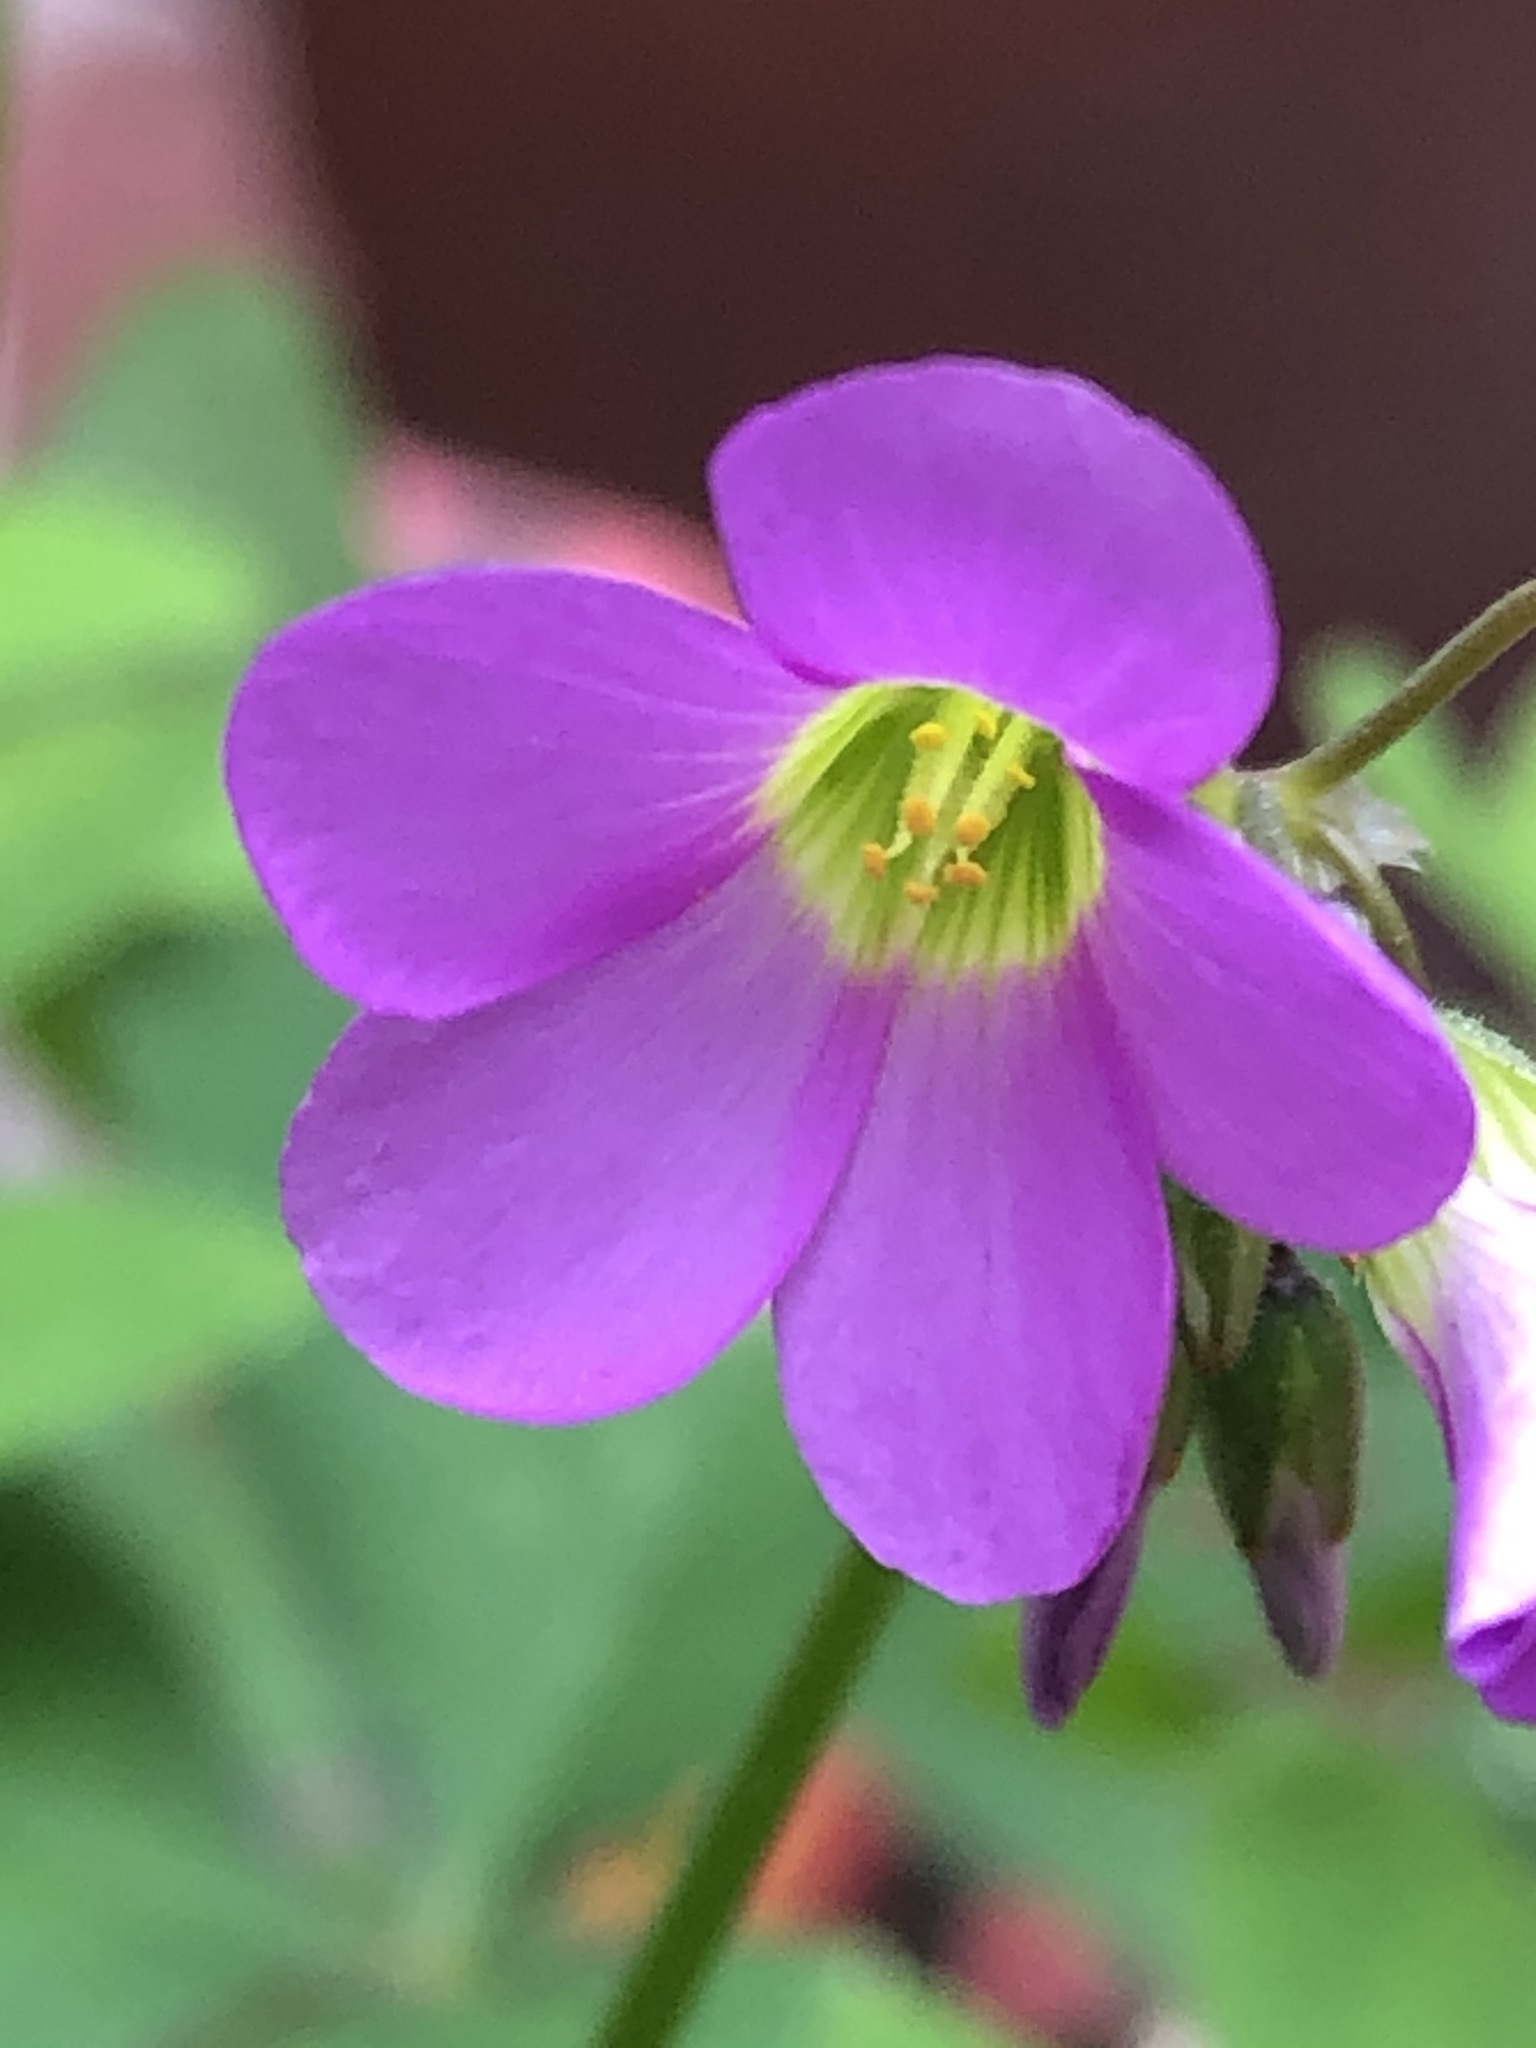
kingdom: Plantae
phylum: Tracheophyta
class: Magnoliopsida
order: Oxalidales
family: Oxalidaceae
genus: Oxalis
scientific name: Oxalis latifolia
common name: Garden pink-sorrel
